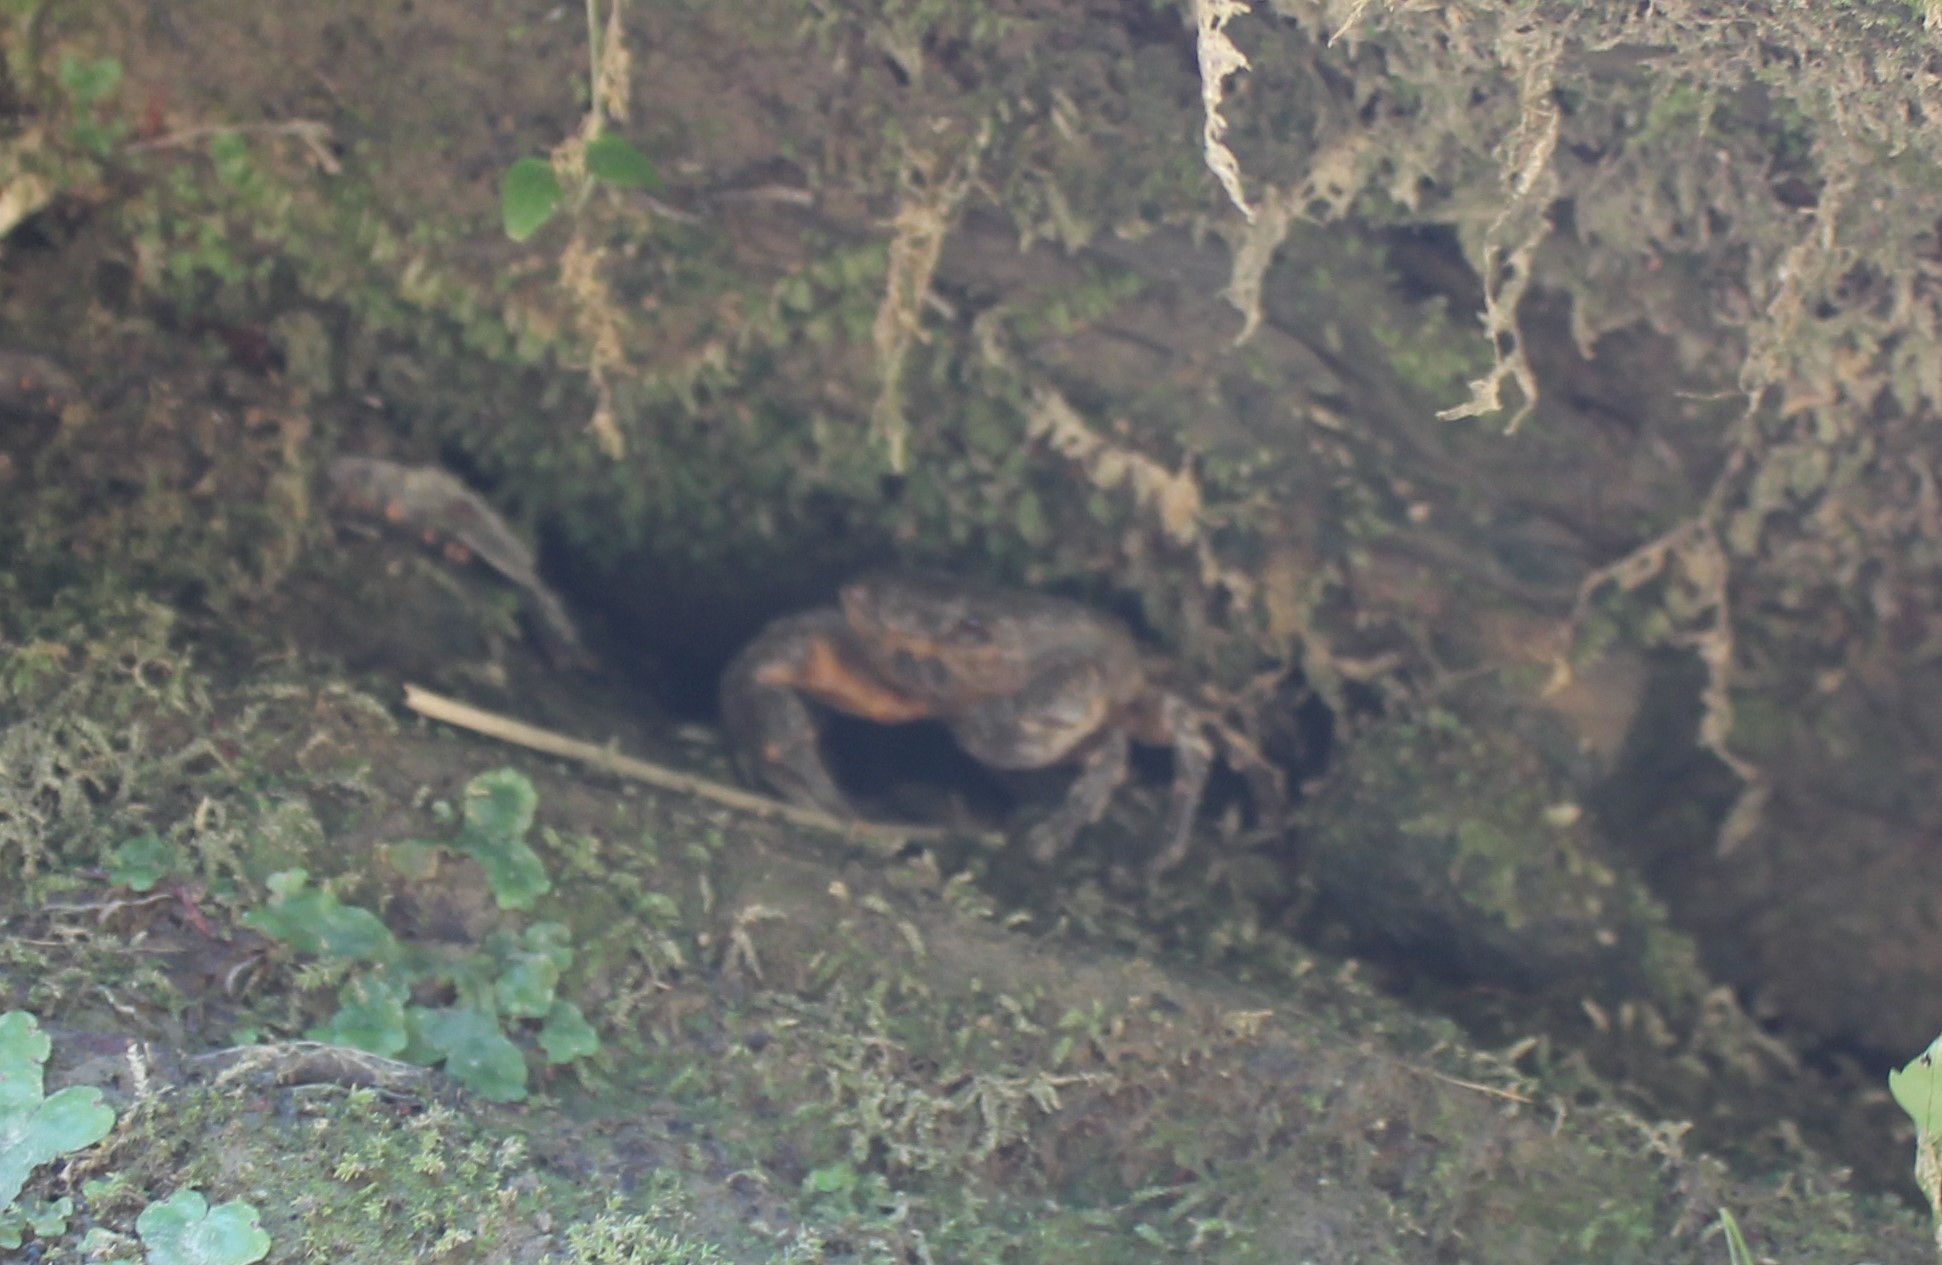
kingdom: Animalia
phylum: Arthropoda
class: Malacostraca
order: Decapoda
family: Potamidae
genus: Potamon
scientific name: Potamon ibericum
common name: Bieberstein's freshwater crab
